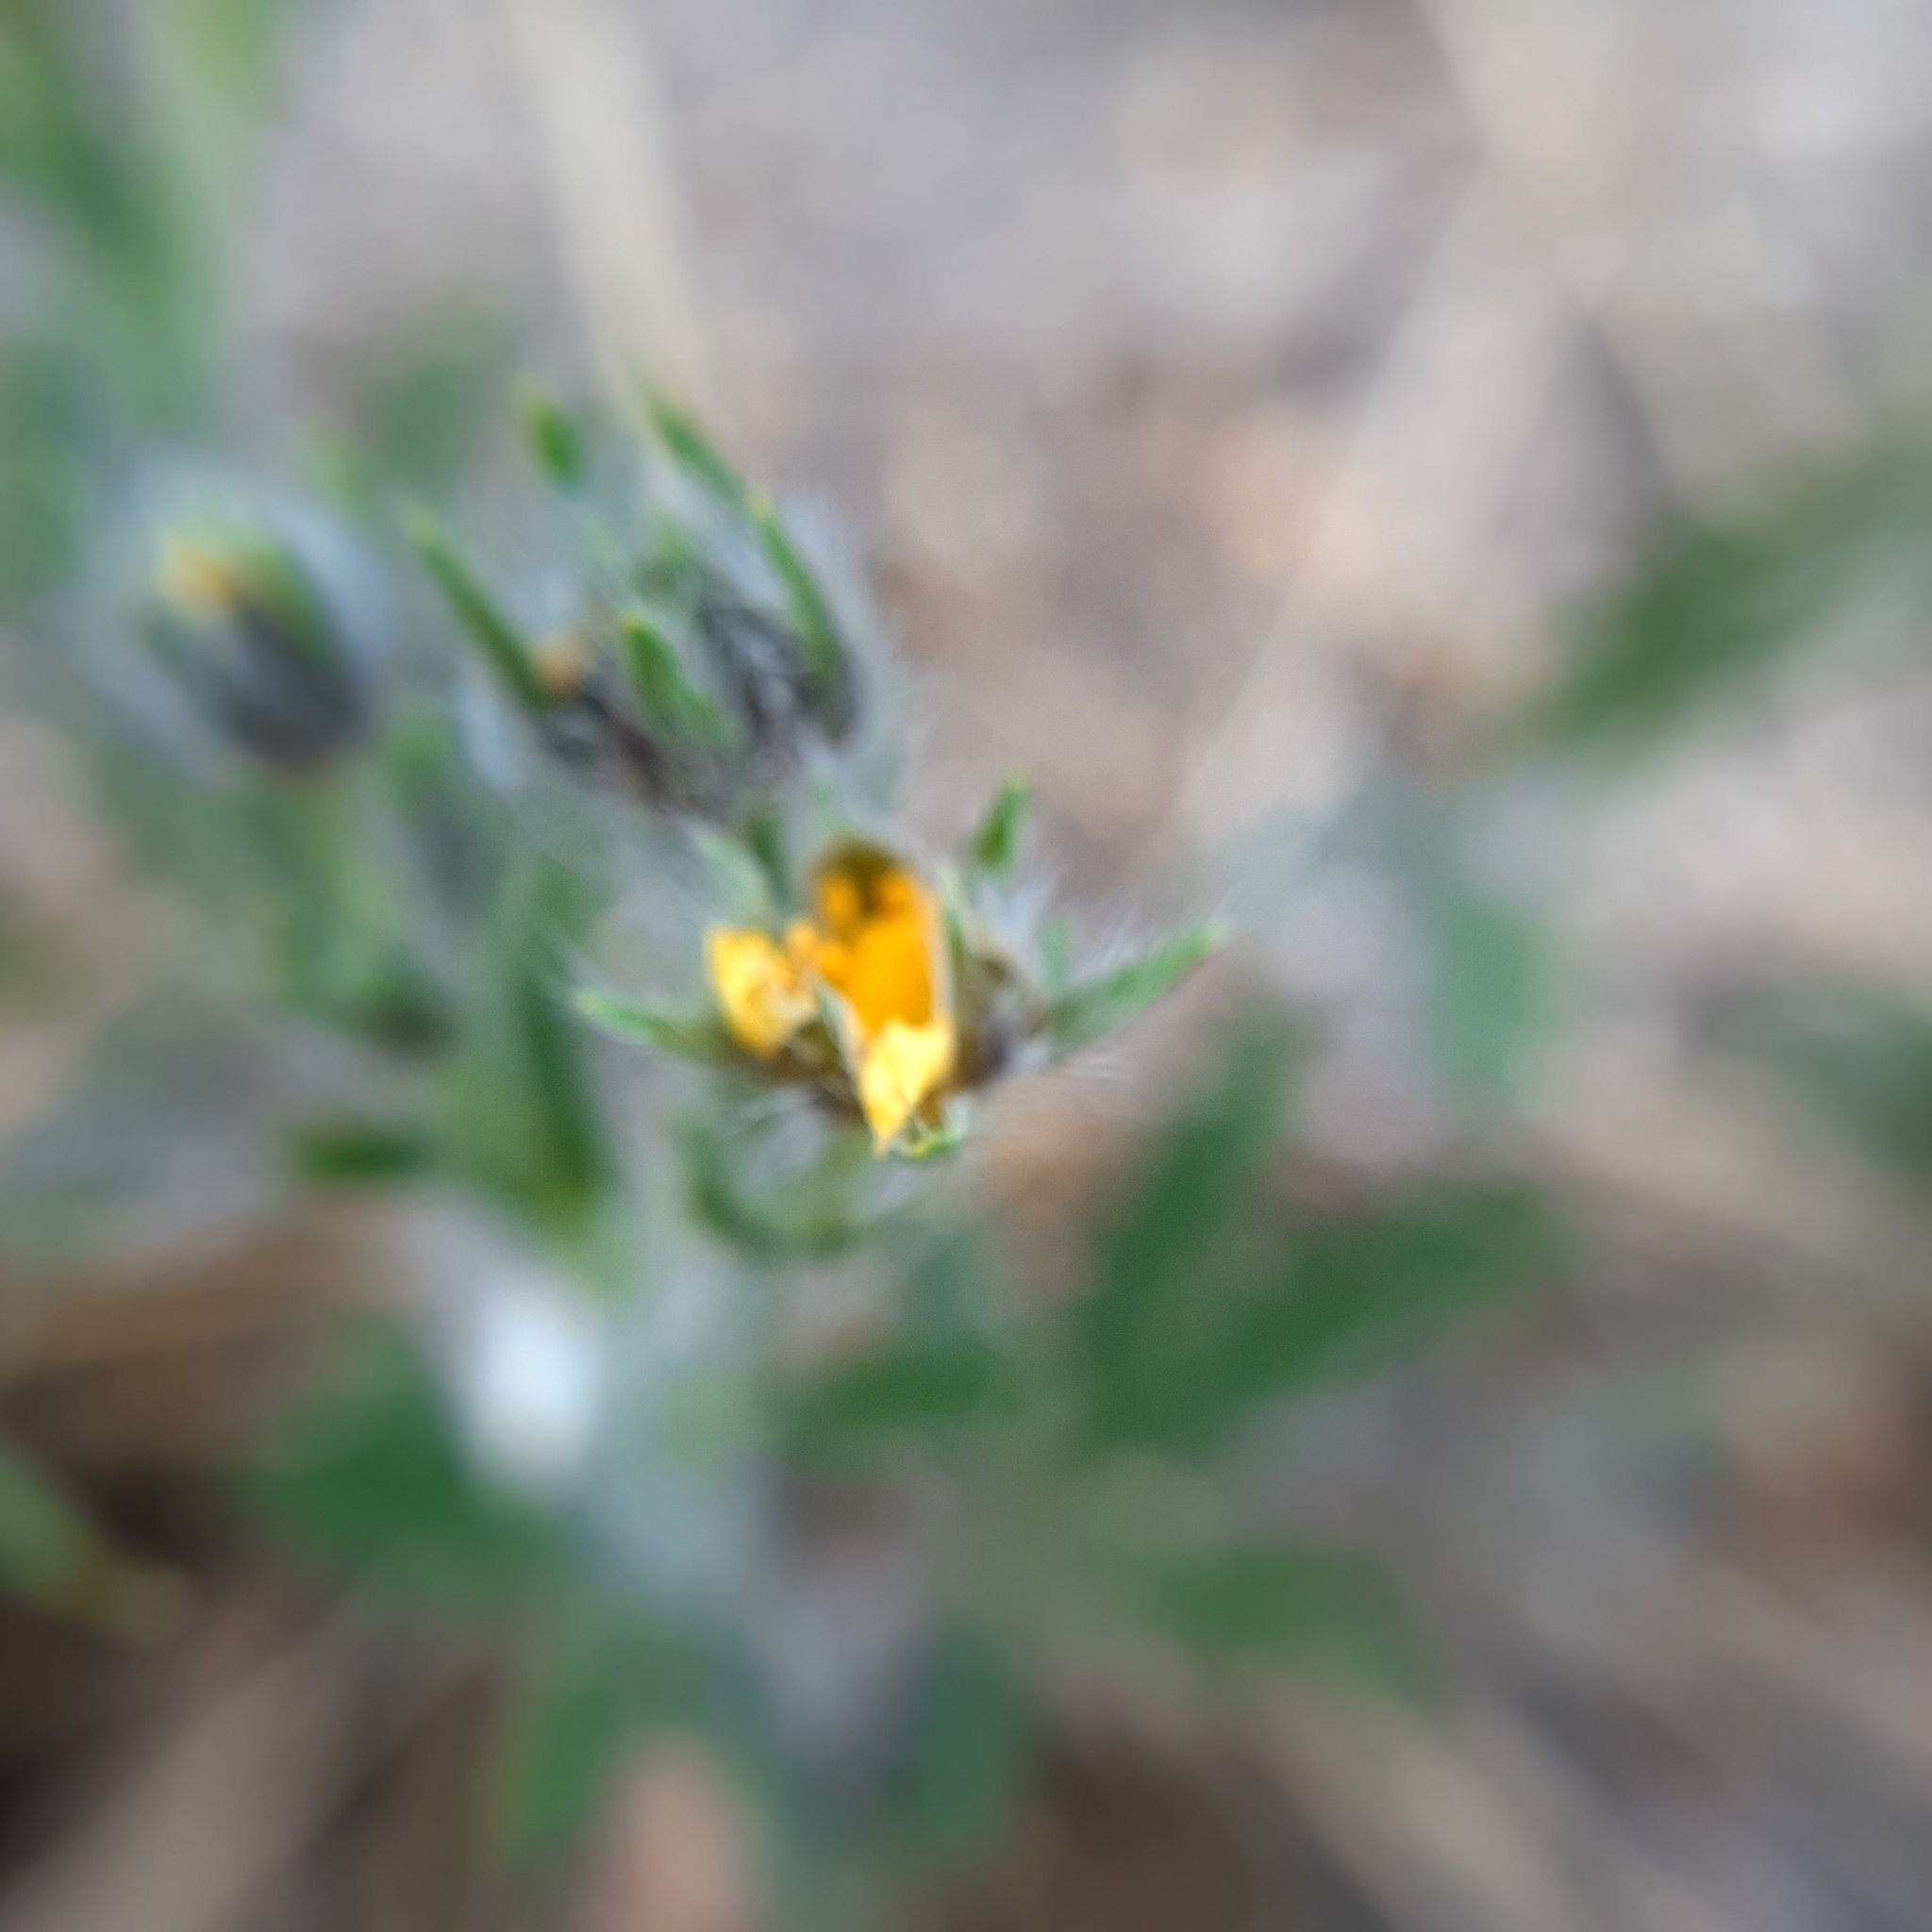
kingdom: Plantae
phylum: Tracheophyta
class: Magnoliopsida
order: Rosales
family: Rosaceae
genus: Potentilla
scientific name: Potentilla
